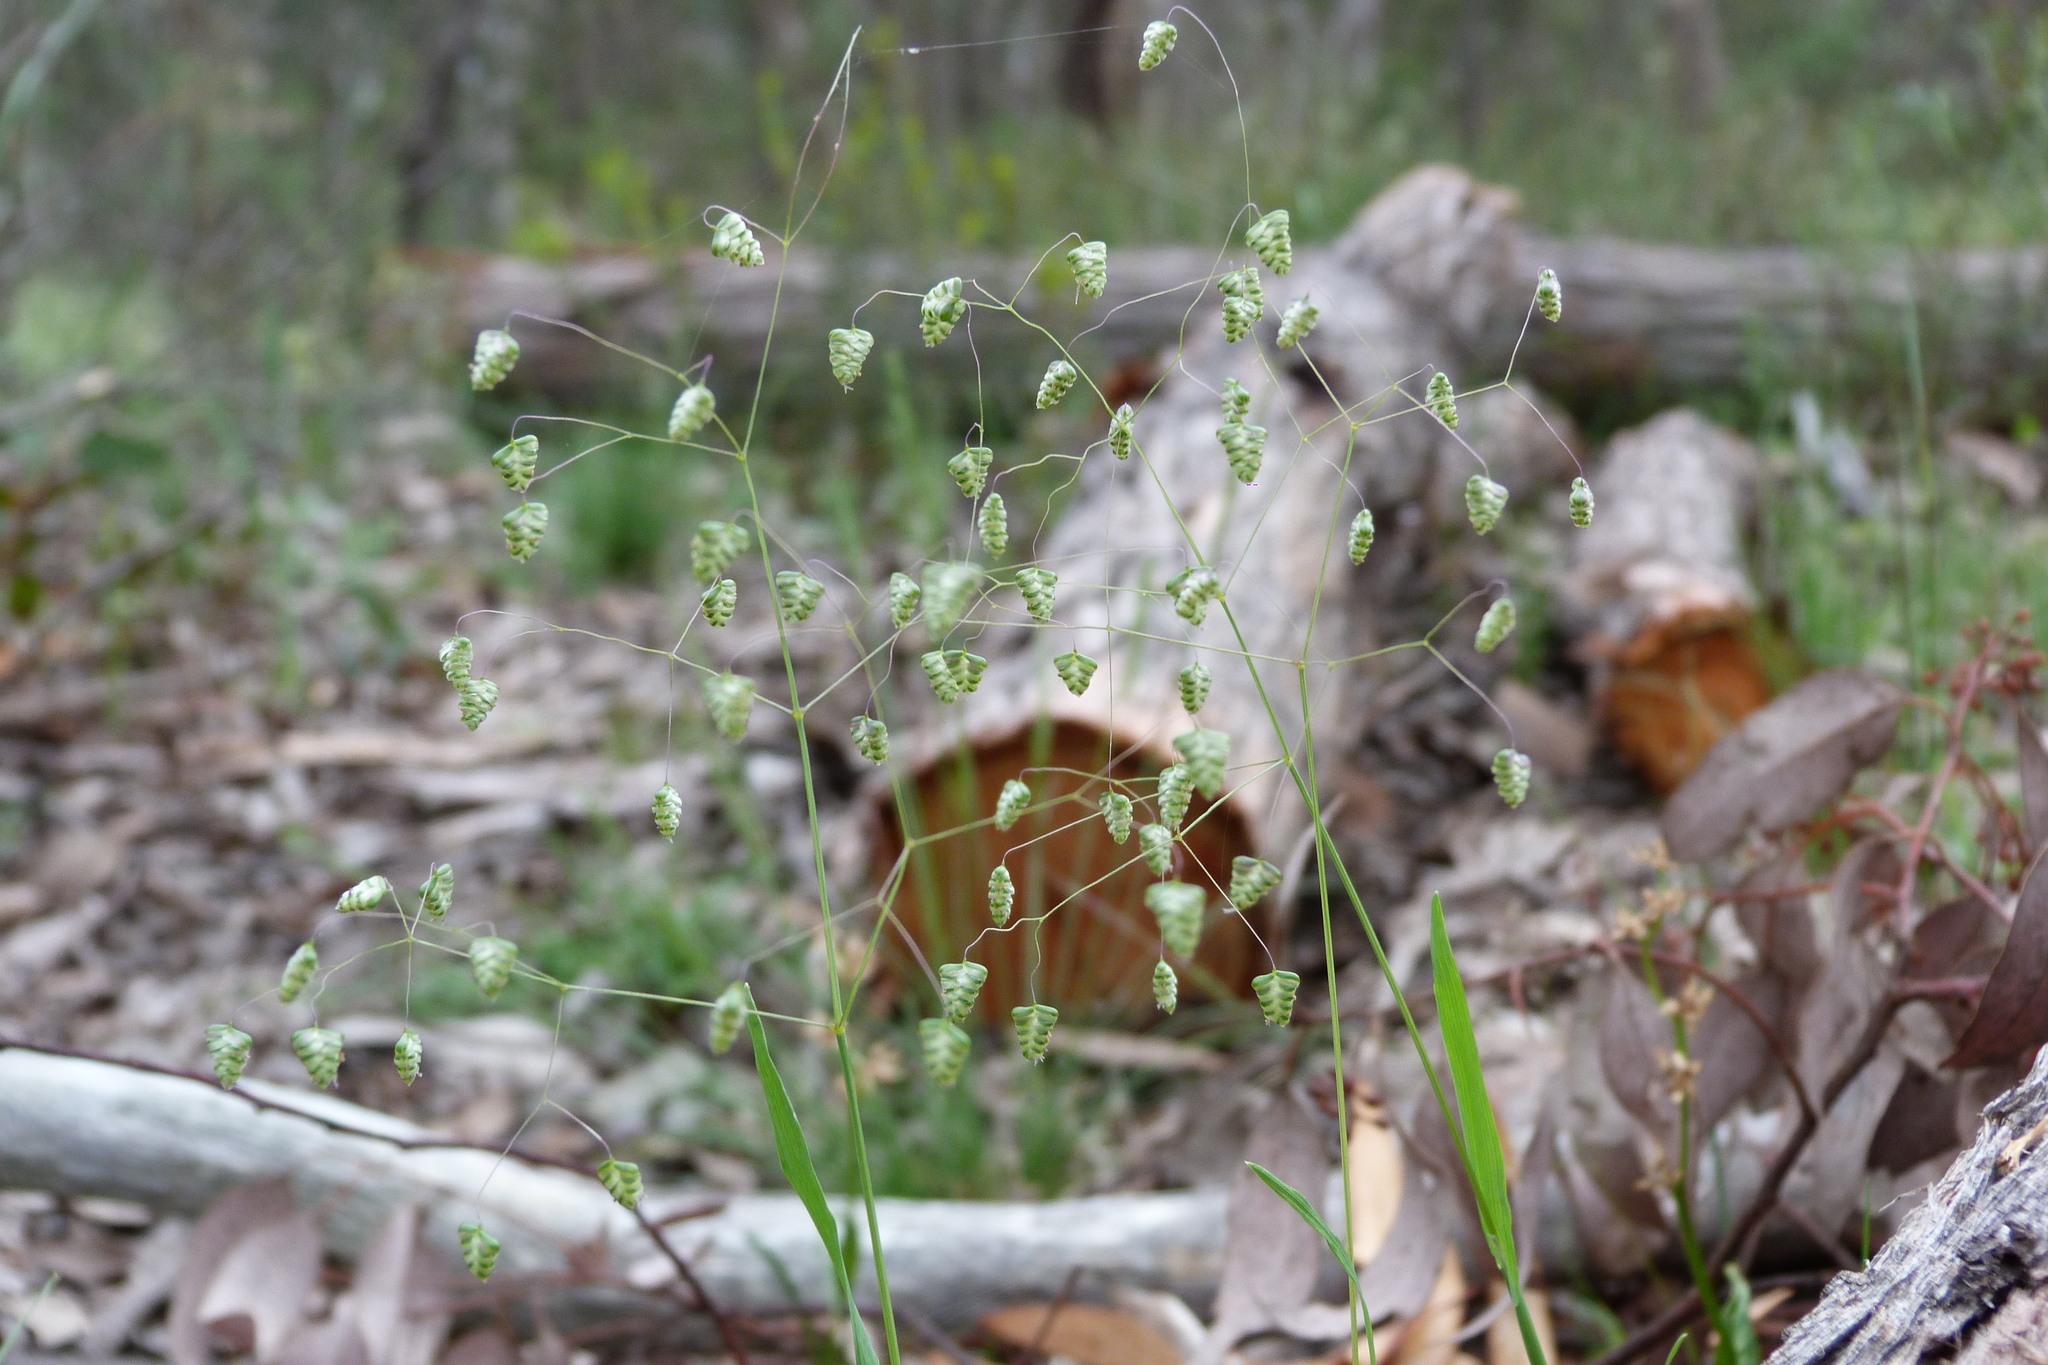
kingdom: Plantae
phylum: Tracheophyta
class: Liliopsida
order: Poales
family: Poaceae
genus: Briza
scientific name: Briza minor
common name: Lesser quaking-grass
